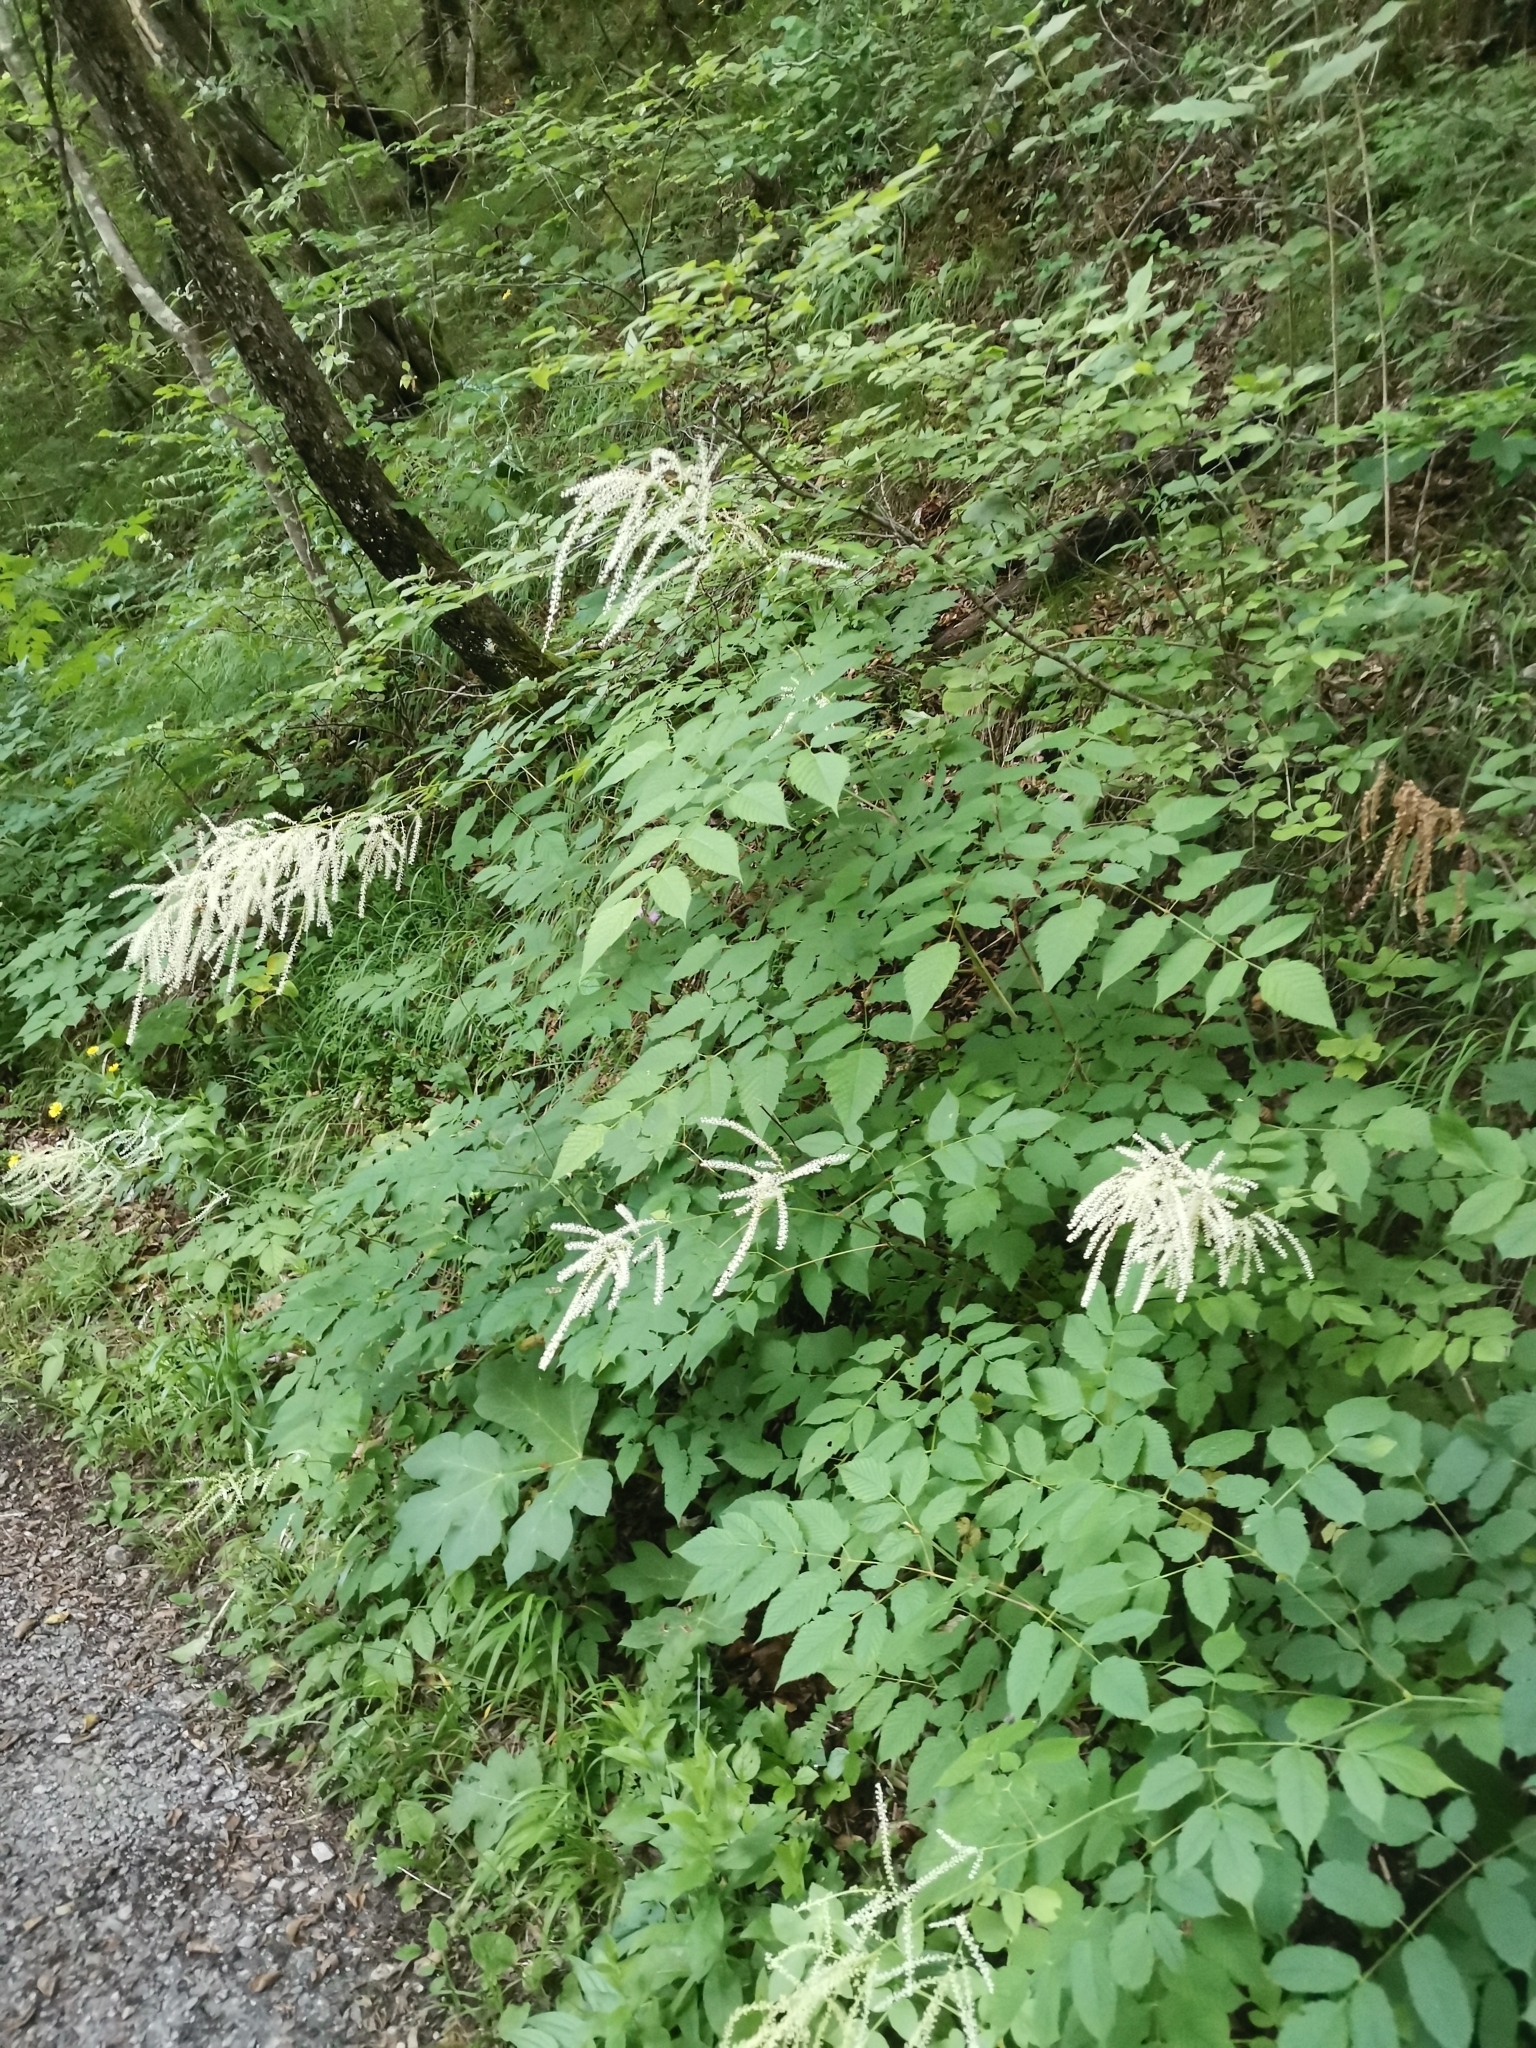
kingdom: Plantae
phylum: Tracheophyta
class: Magnoliopsida
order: Rosales
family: Rosaceae
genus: Aruncus
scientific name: Aruncus dioicus
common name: Buck's-beard
